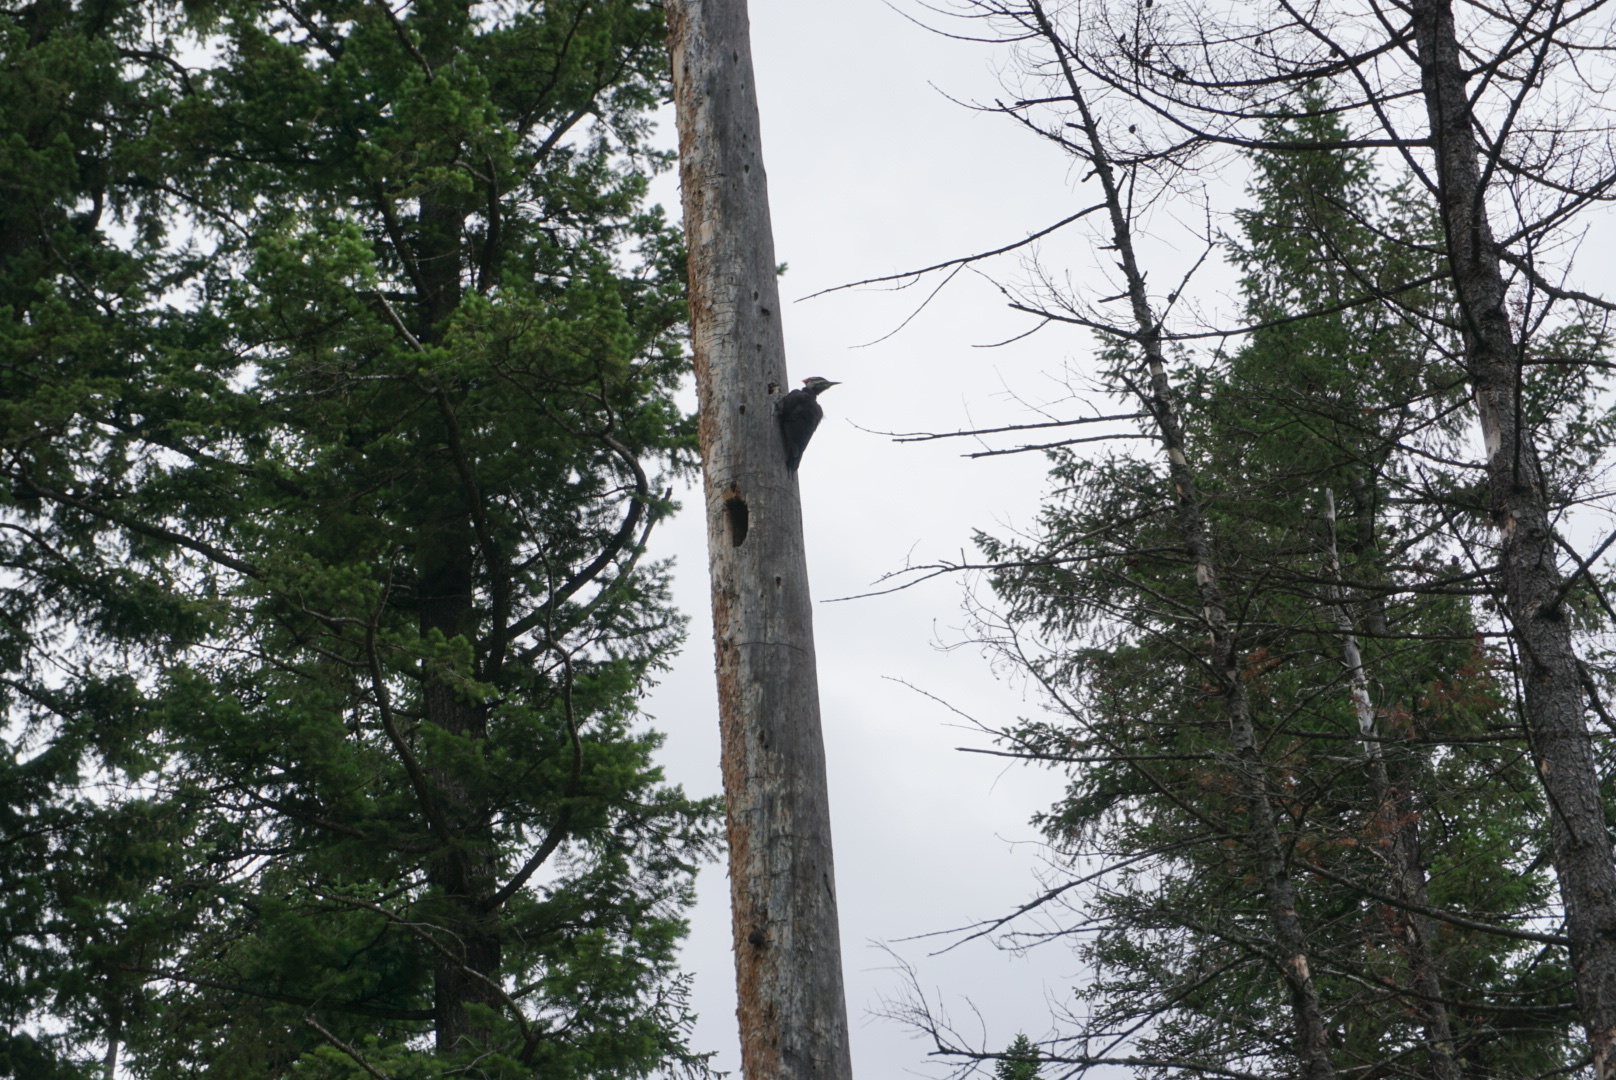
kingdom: Animalia
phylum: Chordata
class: Aves
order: Piciformes
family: Picidae
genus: Dryocopus
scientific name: Dryocopus pileatus
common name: Pileated woodpecker
